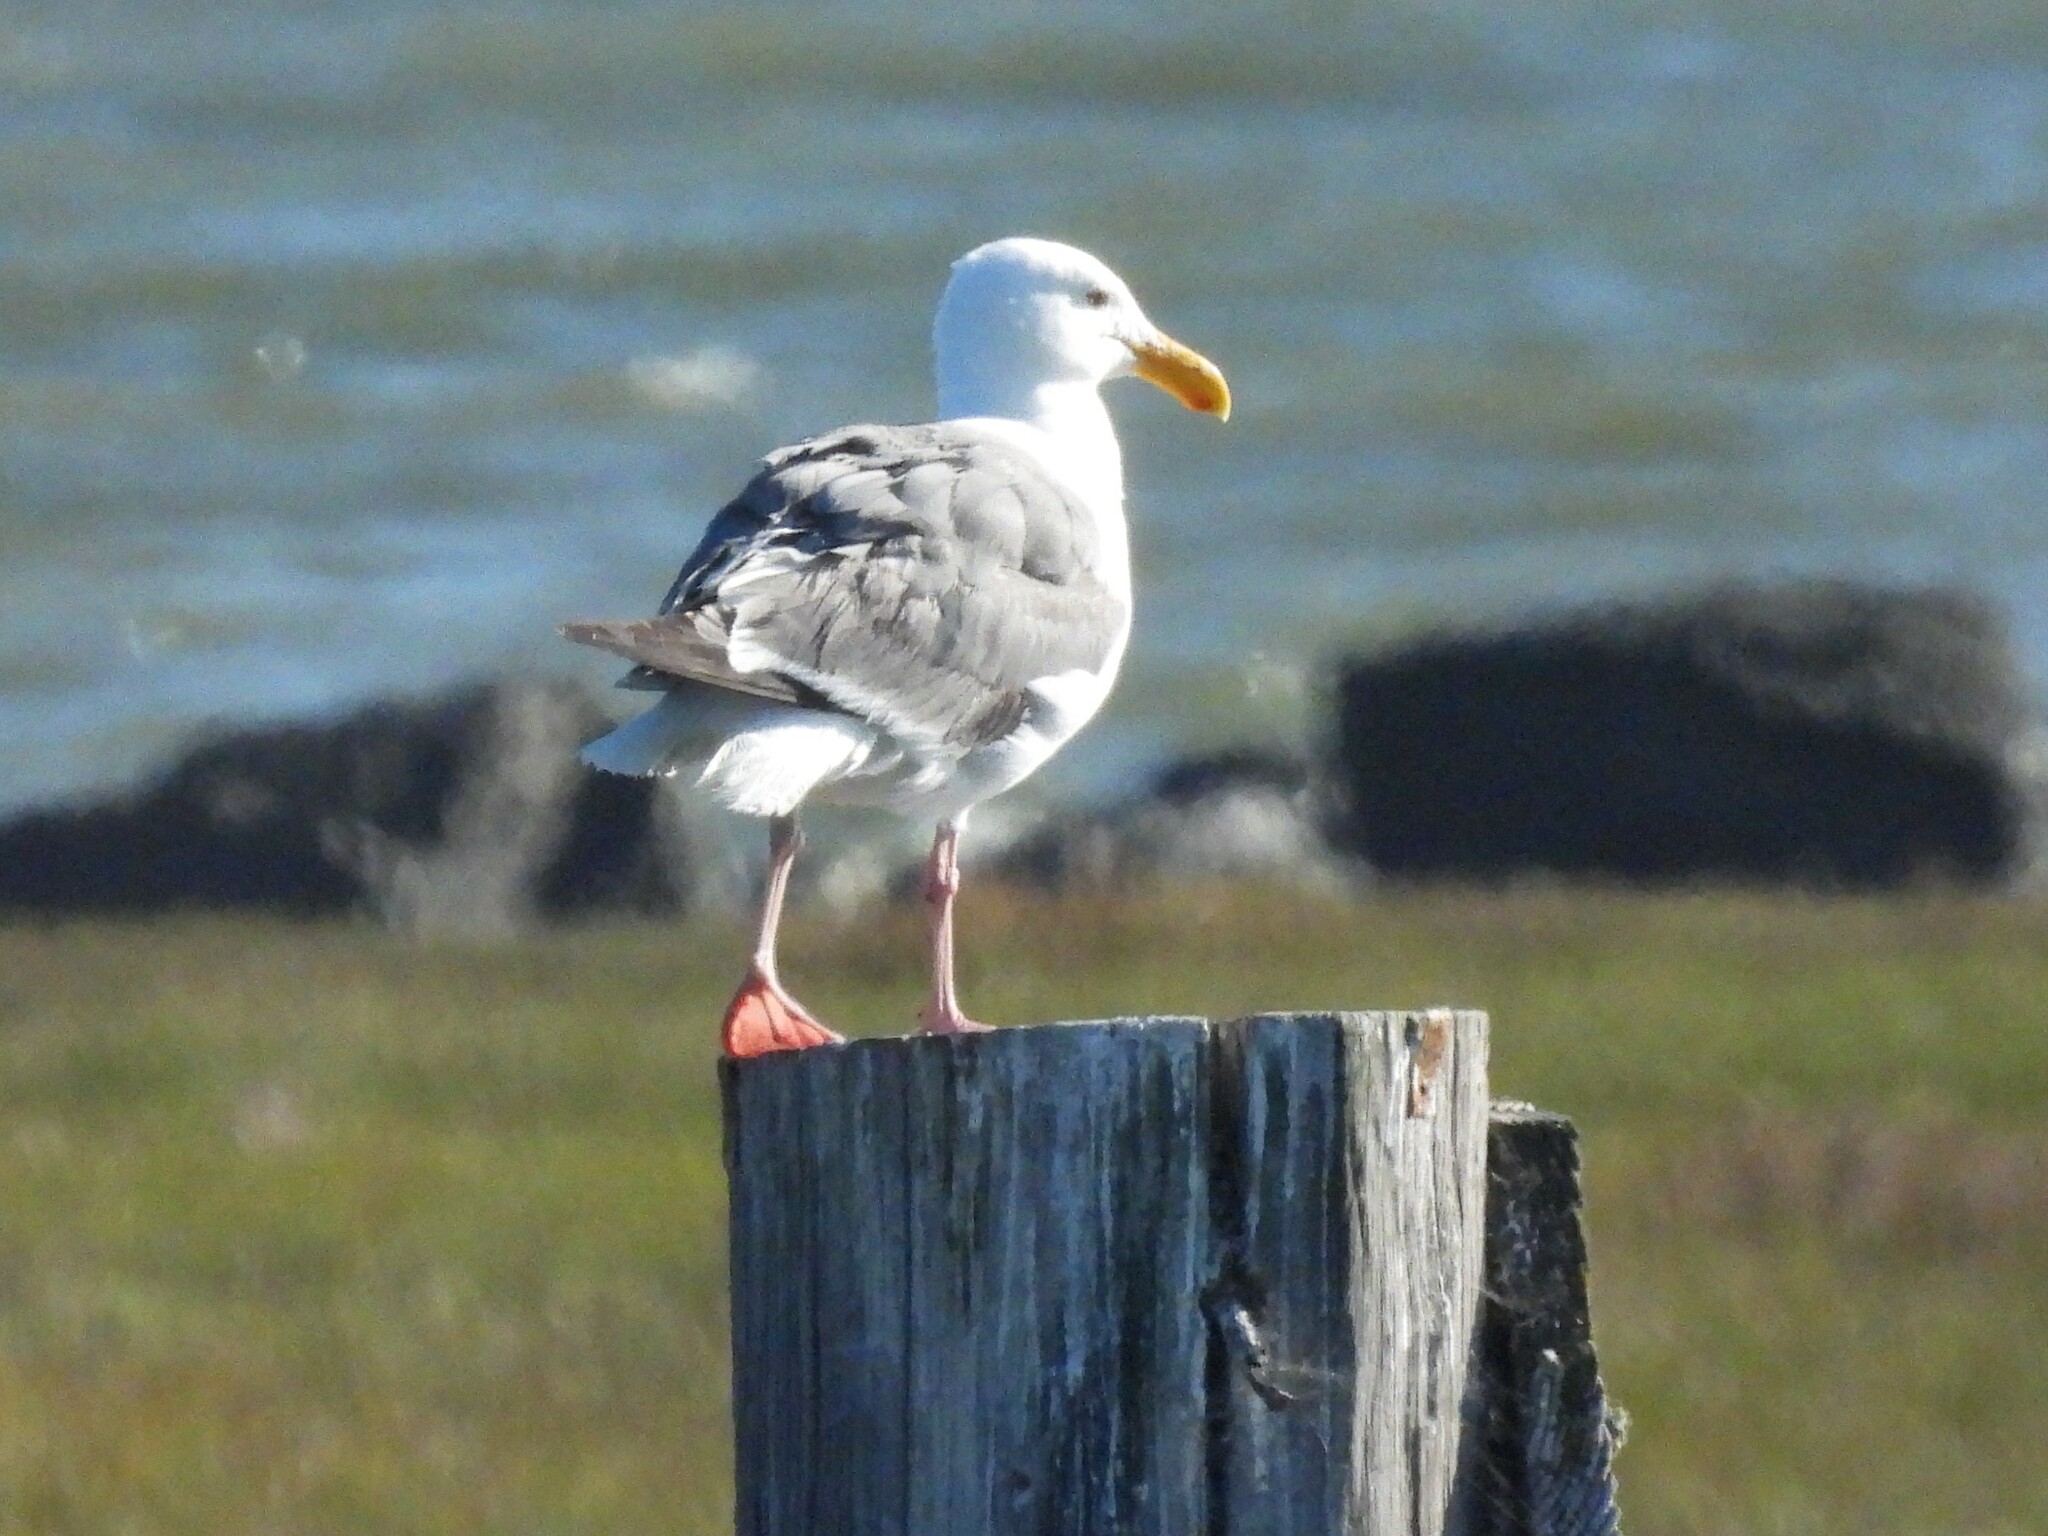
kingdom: Animalia
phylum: Chordata
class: Aves
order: Charadriiformes
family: Laridae
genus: Larus
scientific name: Larus occidentalis
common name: Western gull
